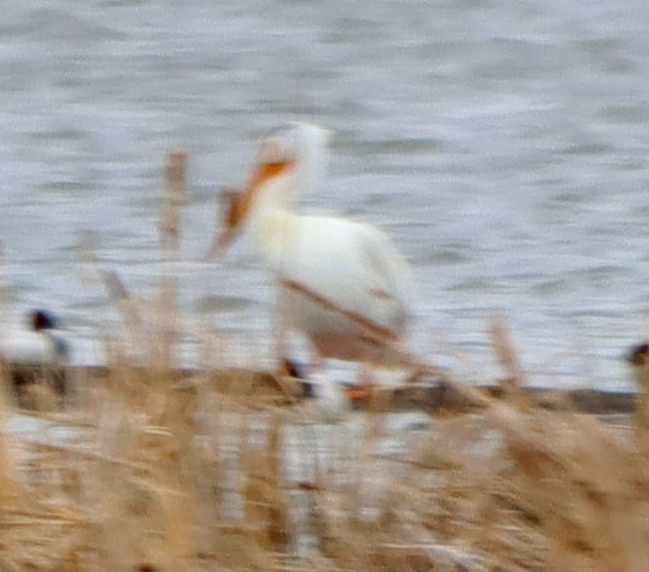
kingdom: Animalia
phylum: Chordata
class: Aves
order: Pelecaniformes
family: Pelecanidae
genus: Pelecanus
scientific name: Pelecanus erythrorhynchos
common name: American white pelican
